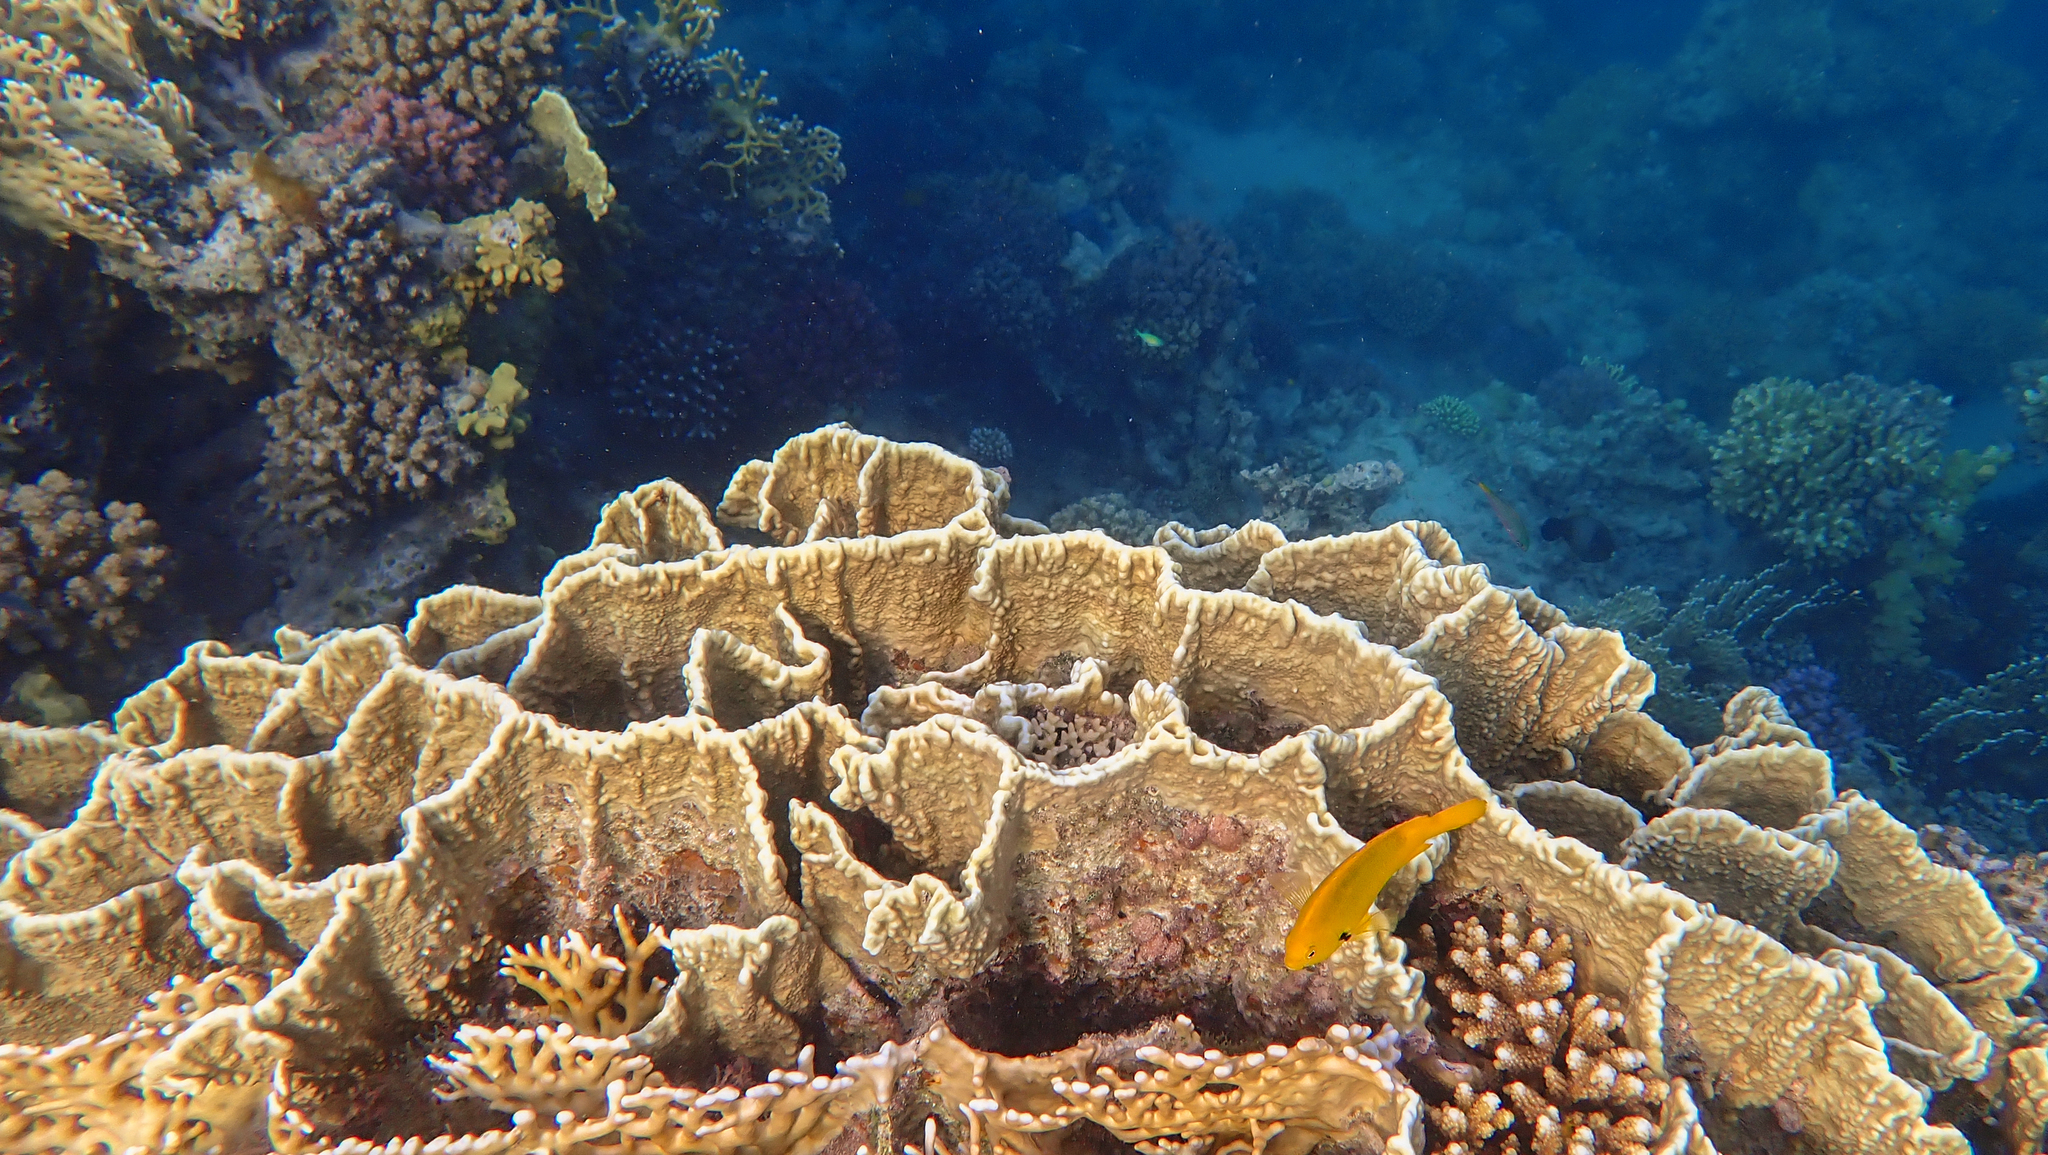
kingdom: Animalia
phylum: Cnidaria
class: Hydrozoa
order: Anthoathecata
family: Milleporidae
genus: Millepora
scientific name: Millepora platyphylla
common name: Sheet fire coral
